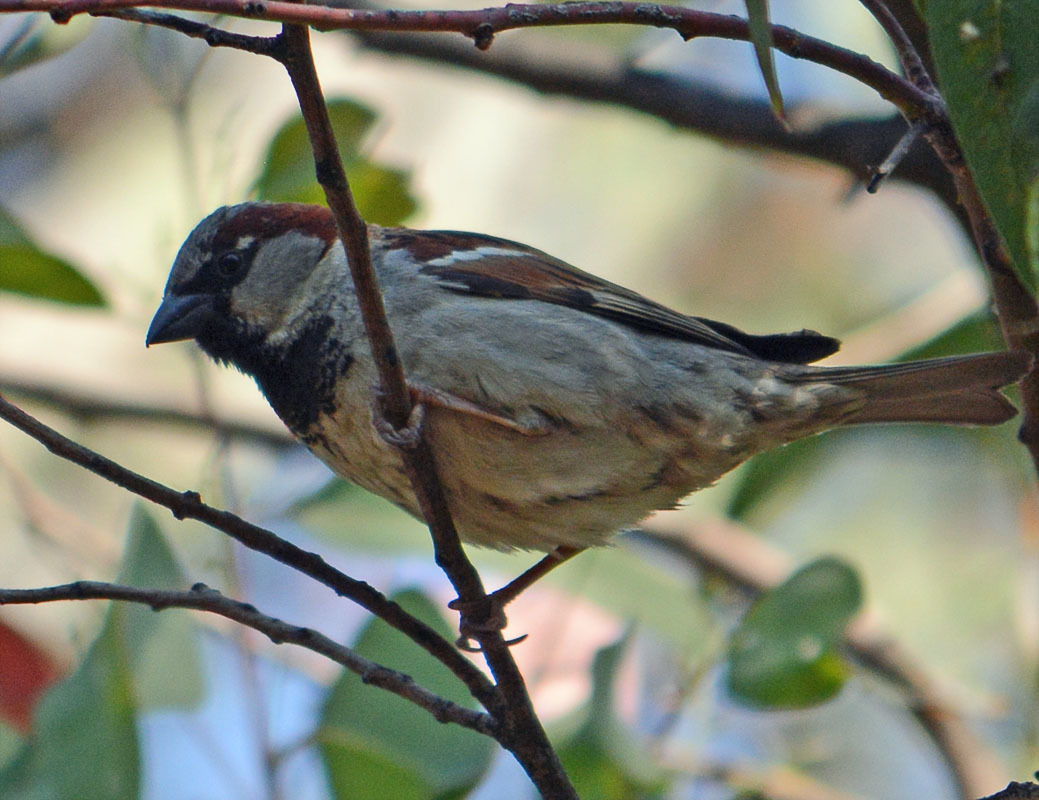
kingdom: Animalia
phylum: Chordata
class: Aves
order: Passeriformes
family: Passeridae
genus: Passer
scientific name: Passer domesticus
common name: House sparrow
